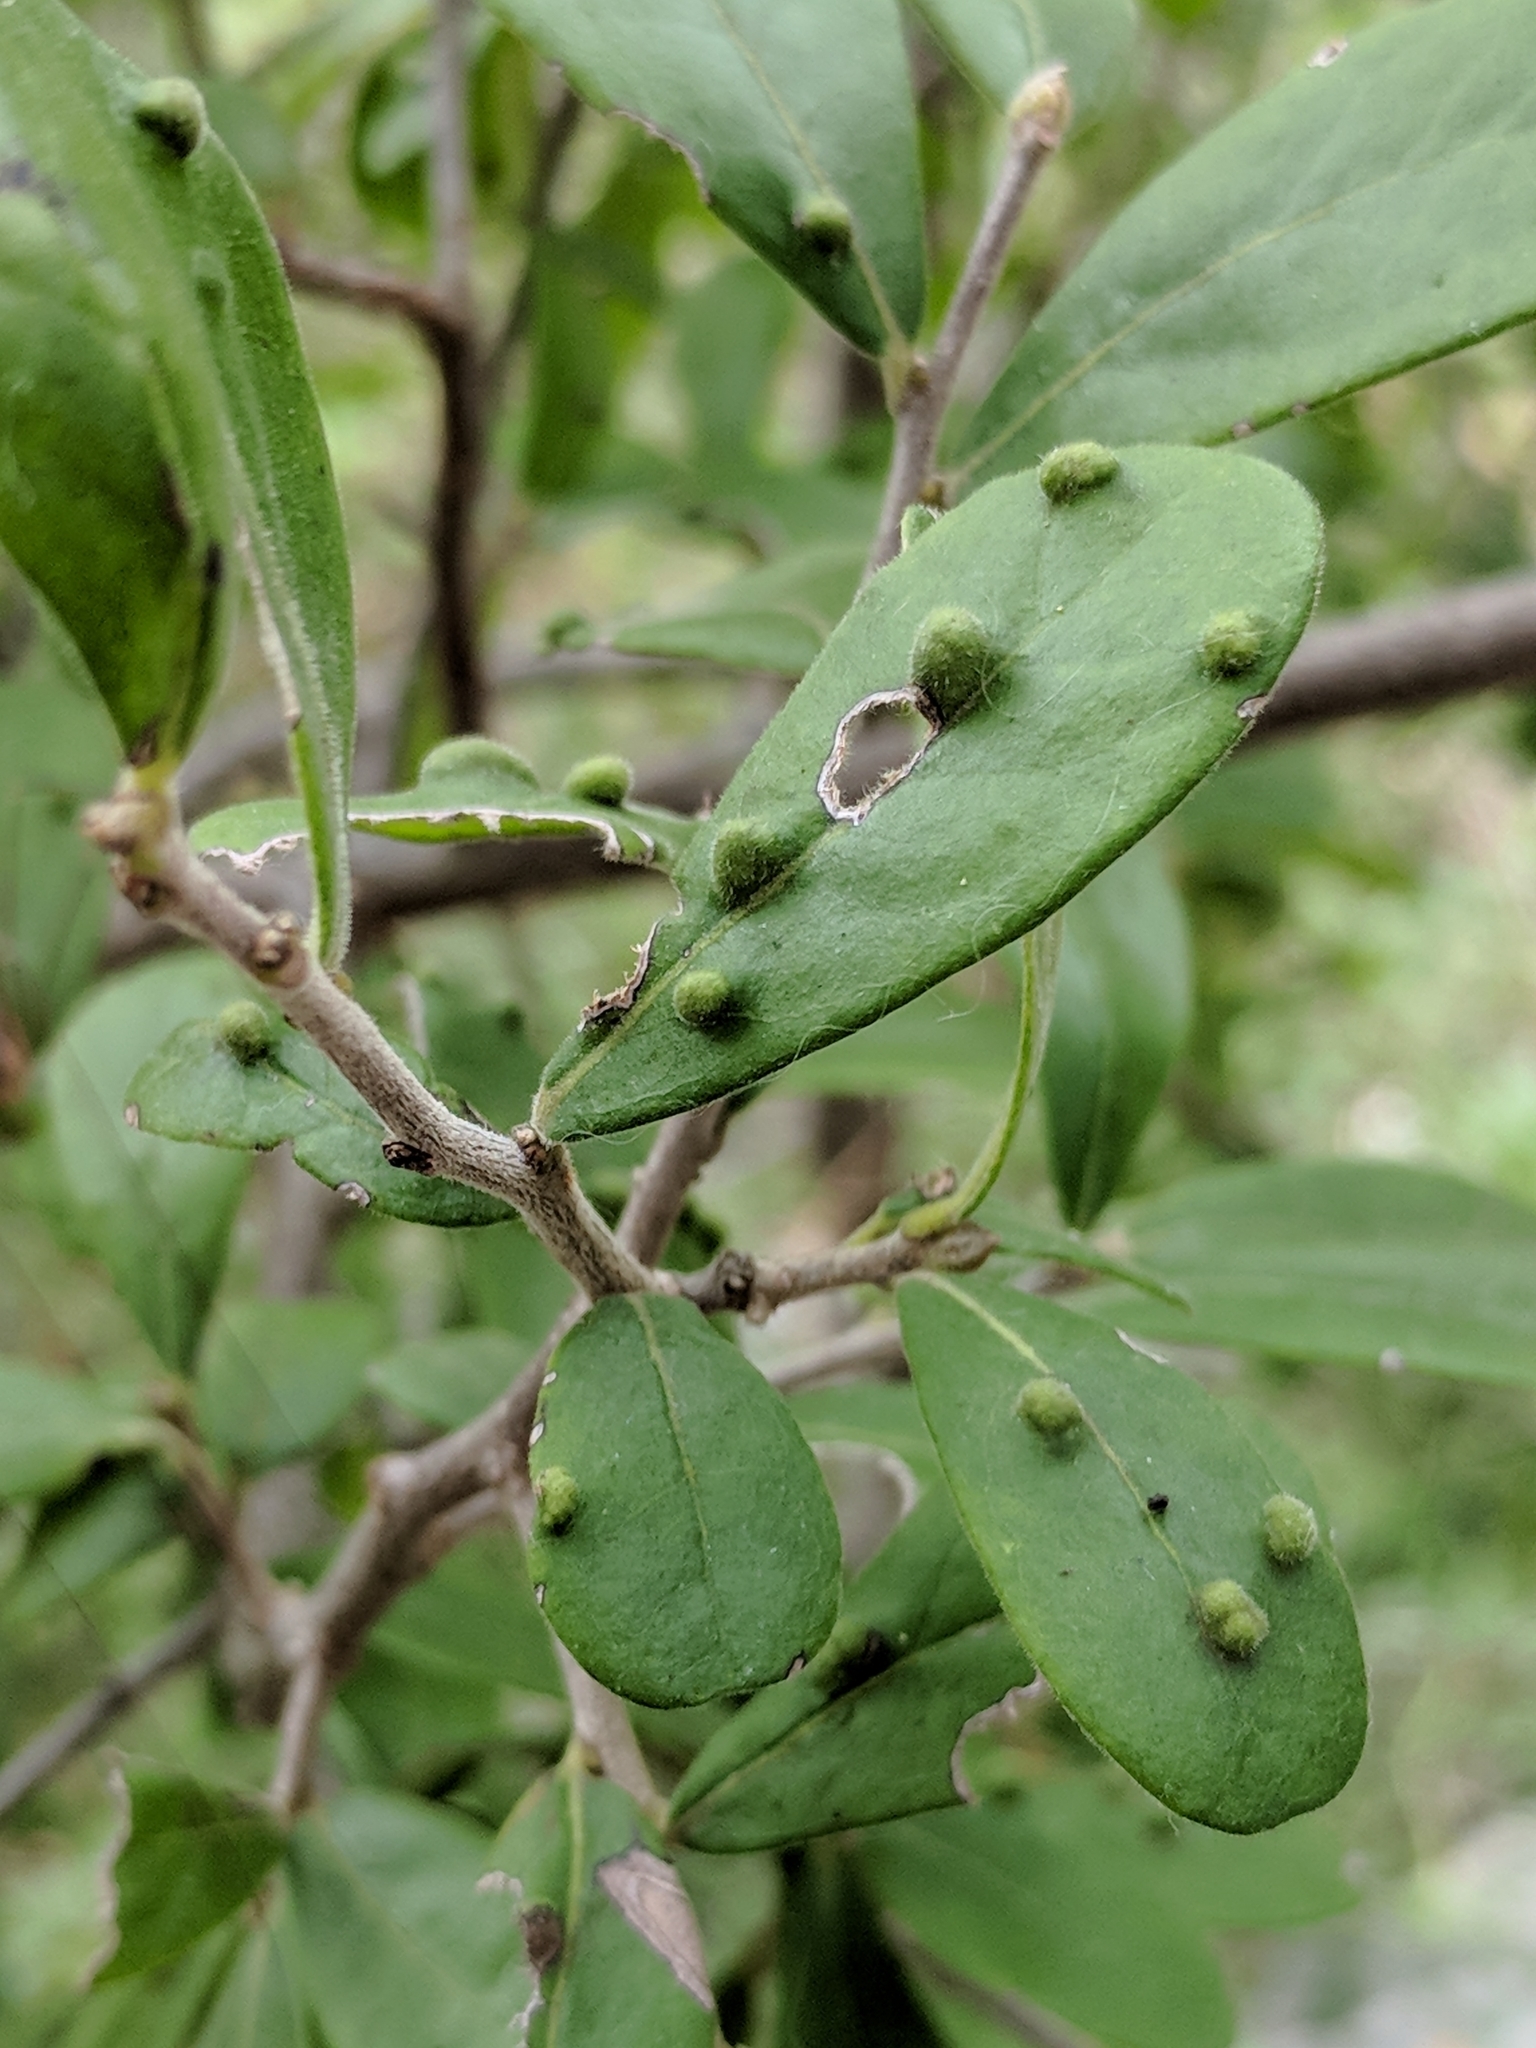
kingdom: Plantae
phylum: Tracheophyta
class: Magnoliopsida
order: Ericales
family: Ebenaceae
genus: Diospyros
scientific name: Diospyros texana
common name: Texas persimmon
